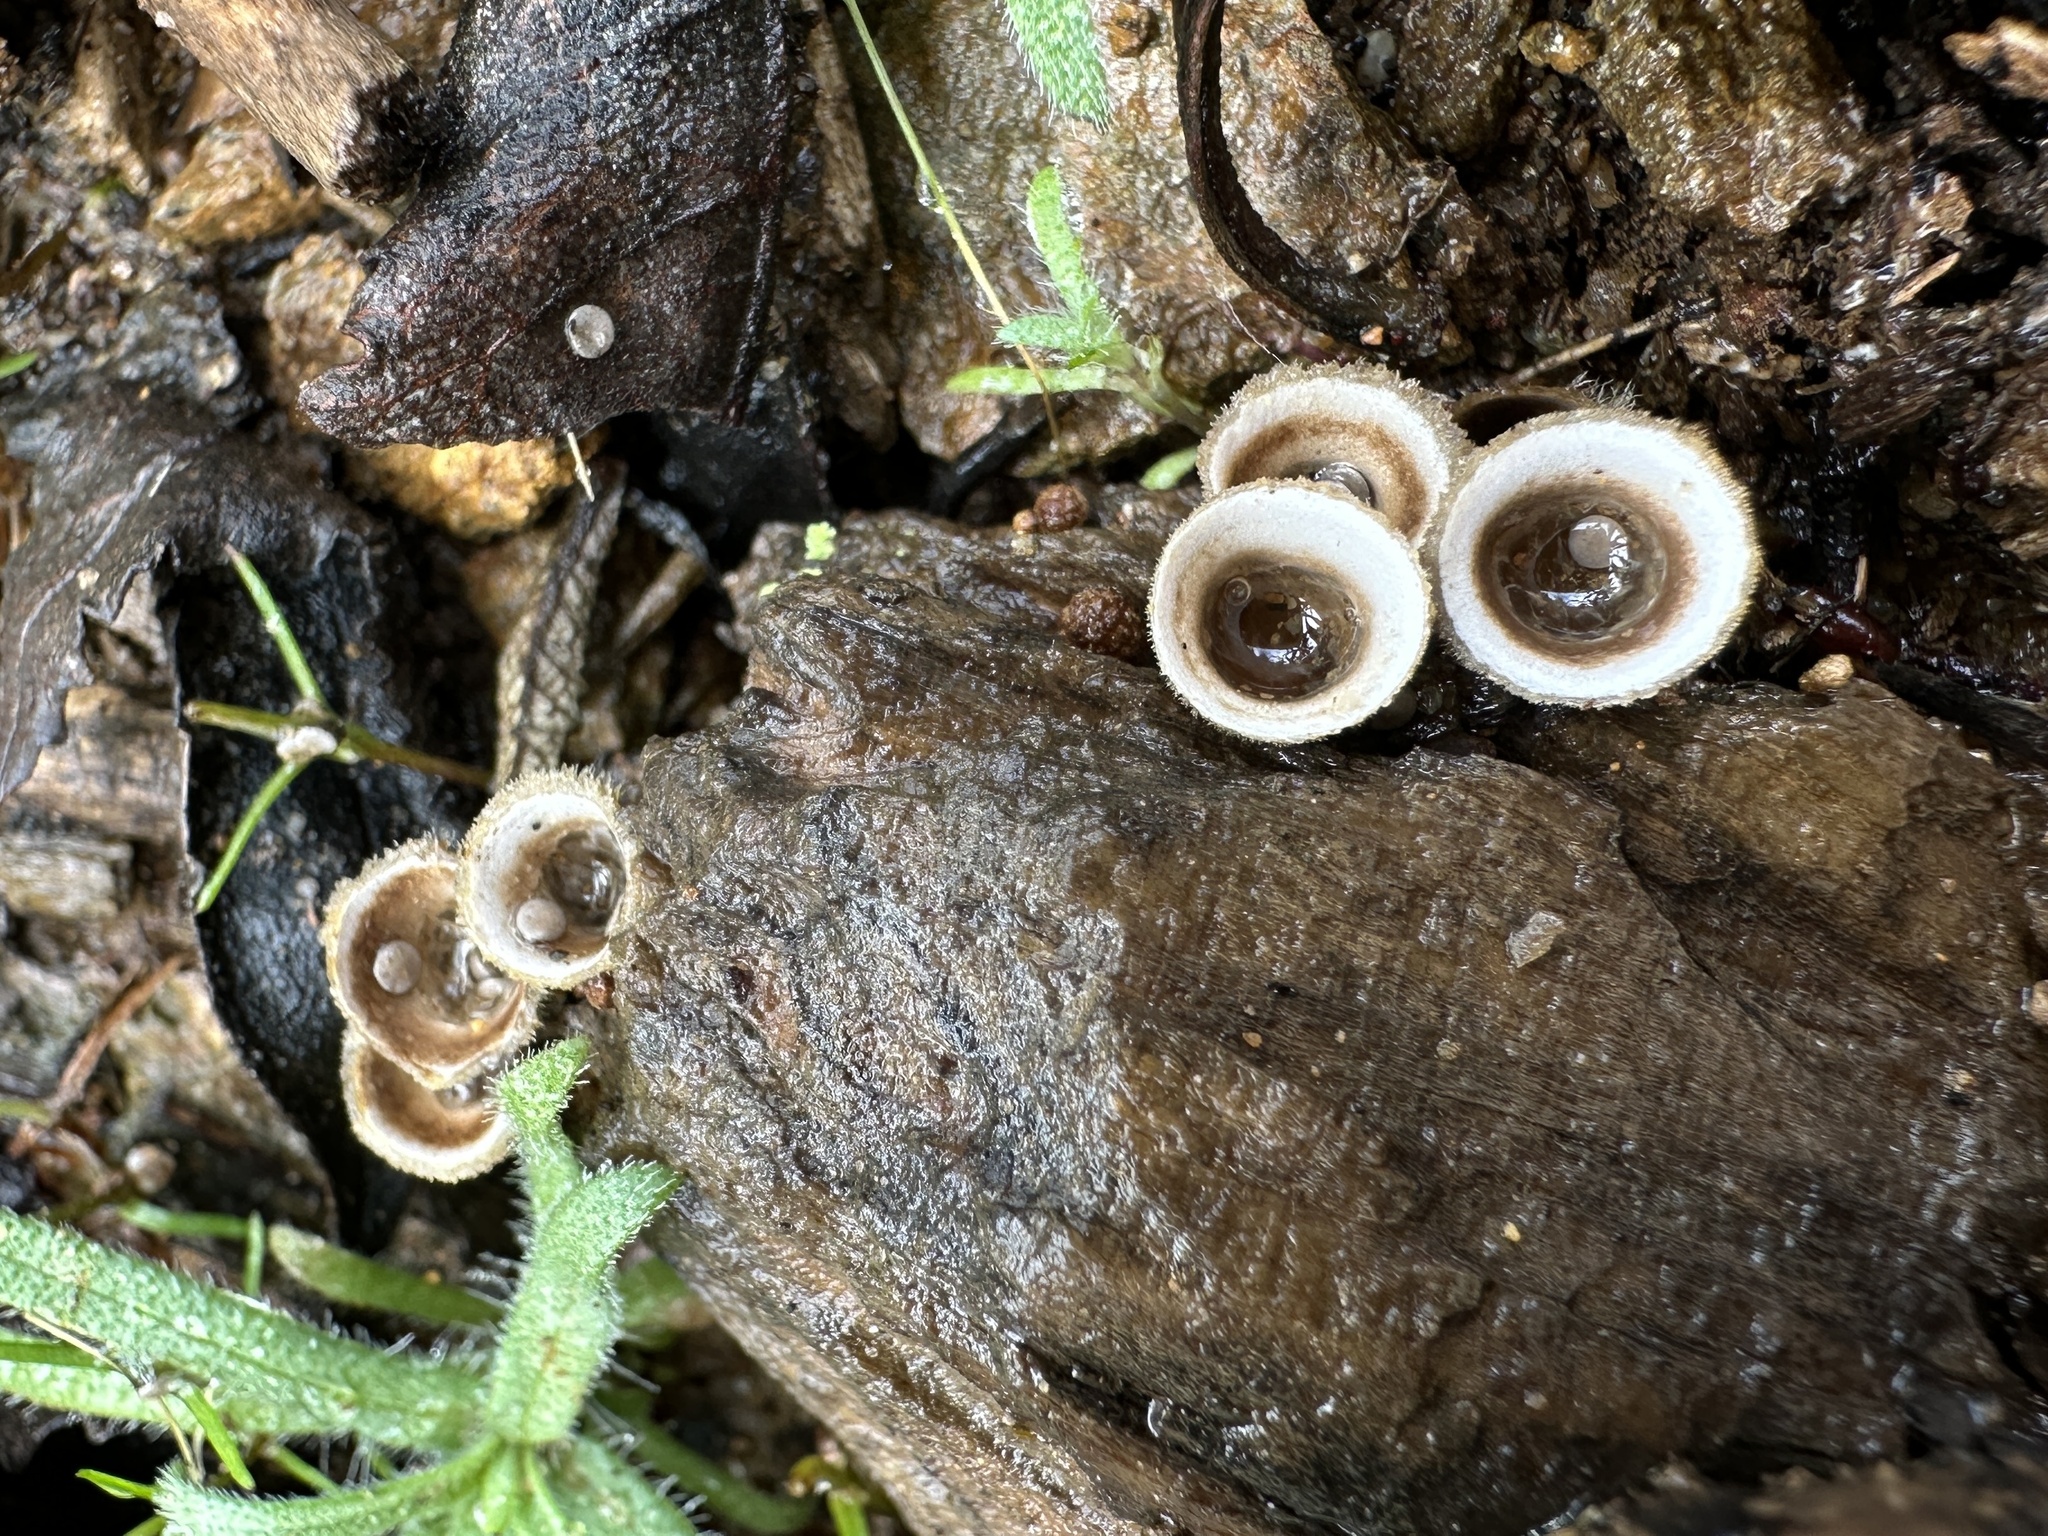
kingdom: Fungi
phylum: Basidiomycota
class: Agaricomycetes
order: Agaricales
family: Agaricaceae
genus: Nidula
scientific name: Nidula candida
